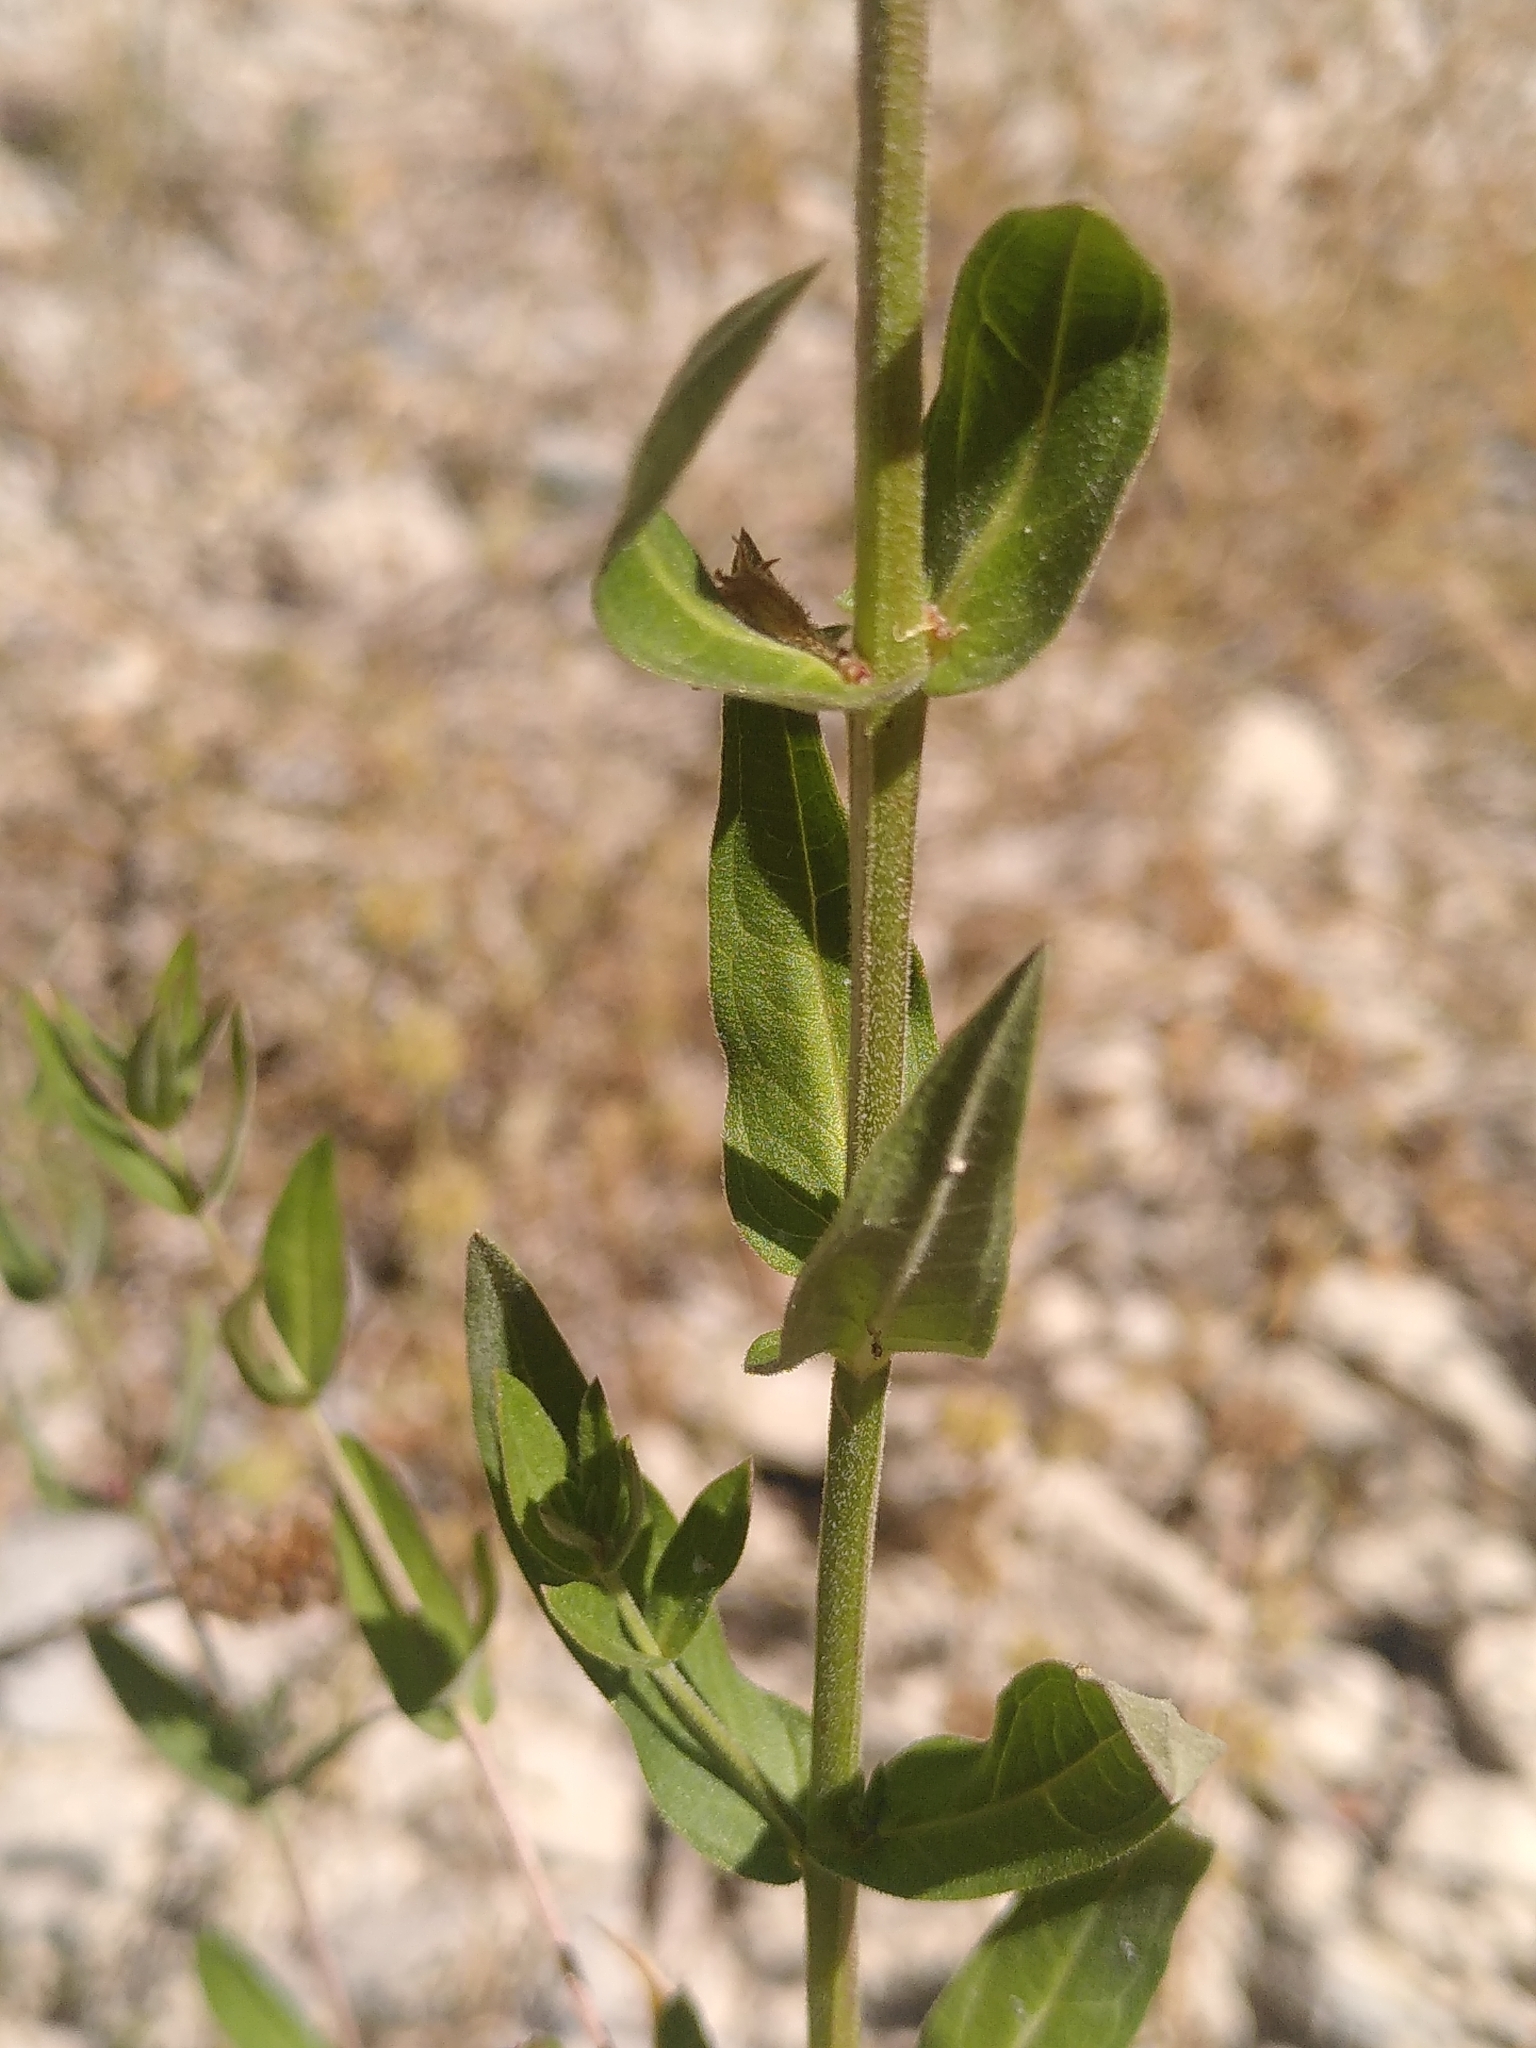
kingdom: Plantae
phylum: Tracheophyta
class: Magnoliopsida
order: Myrtales
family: Lythraceae
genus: Lythrum
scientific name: Lythrum salicaria
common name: Purple loosestrife
